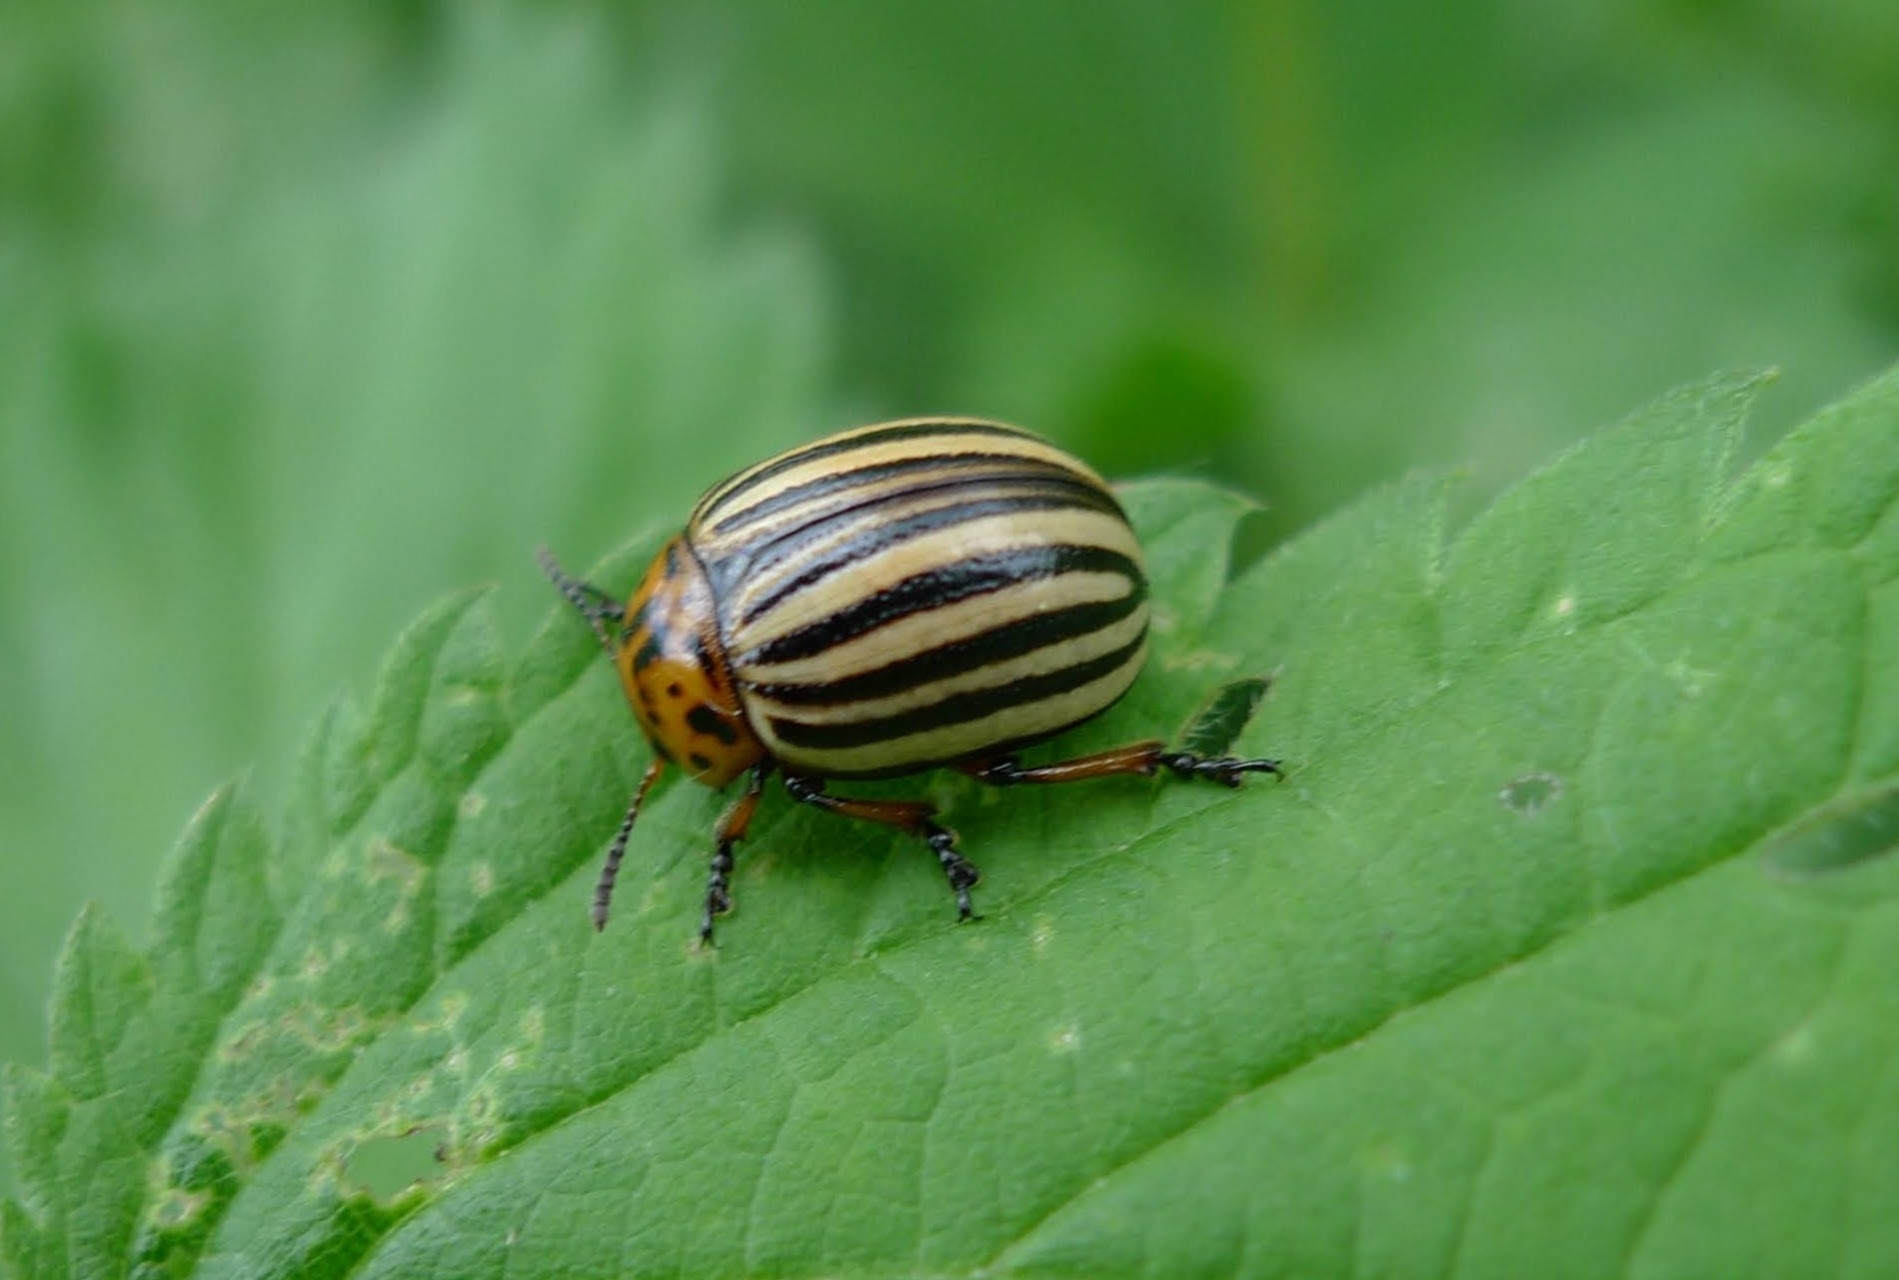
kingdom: Animalia
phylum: Arthropoda
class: Insecta
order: Coleoptera
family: Chrysomelidae
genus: Leptinotarsa
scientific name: Leptinotarsa decemlineata
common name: Colorado potato beetle
